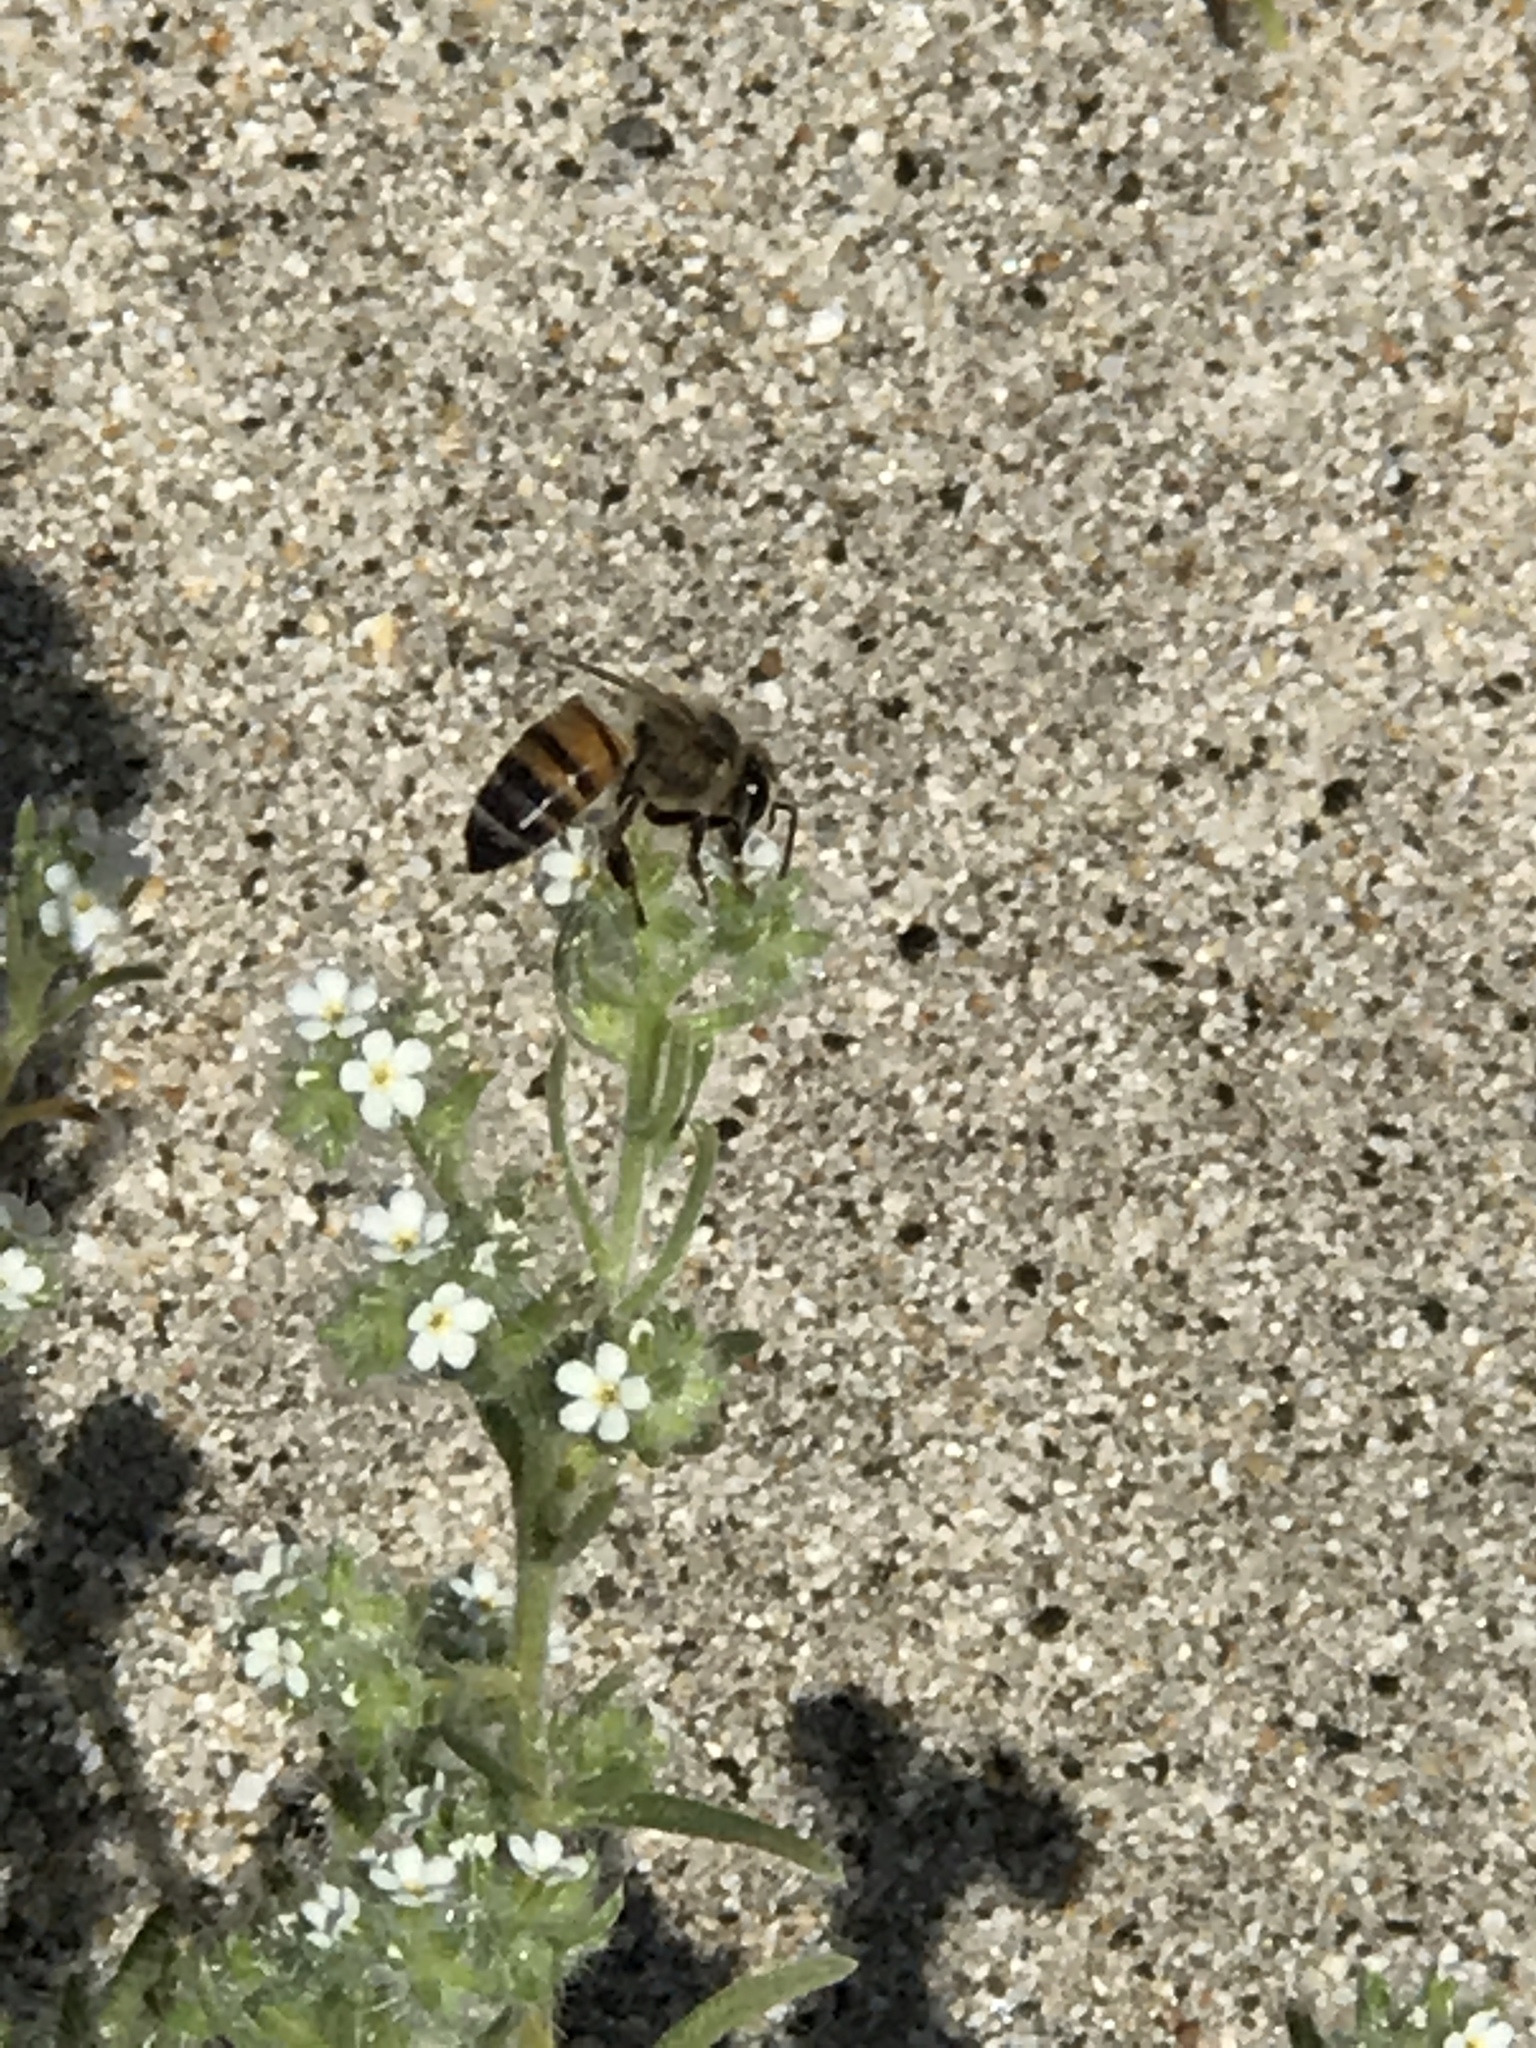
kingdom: Animalia
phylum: Arthropoda
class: Insecta
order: Hymenoptera
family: Apidae
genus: Apis
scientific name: Apis mellifera
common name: Honey bee
